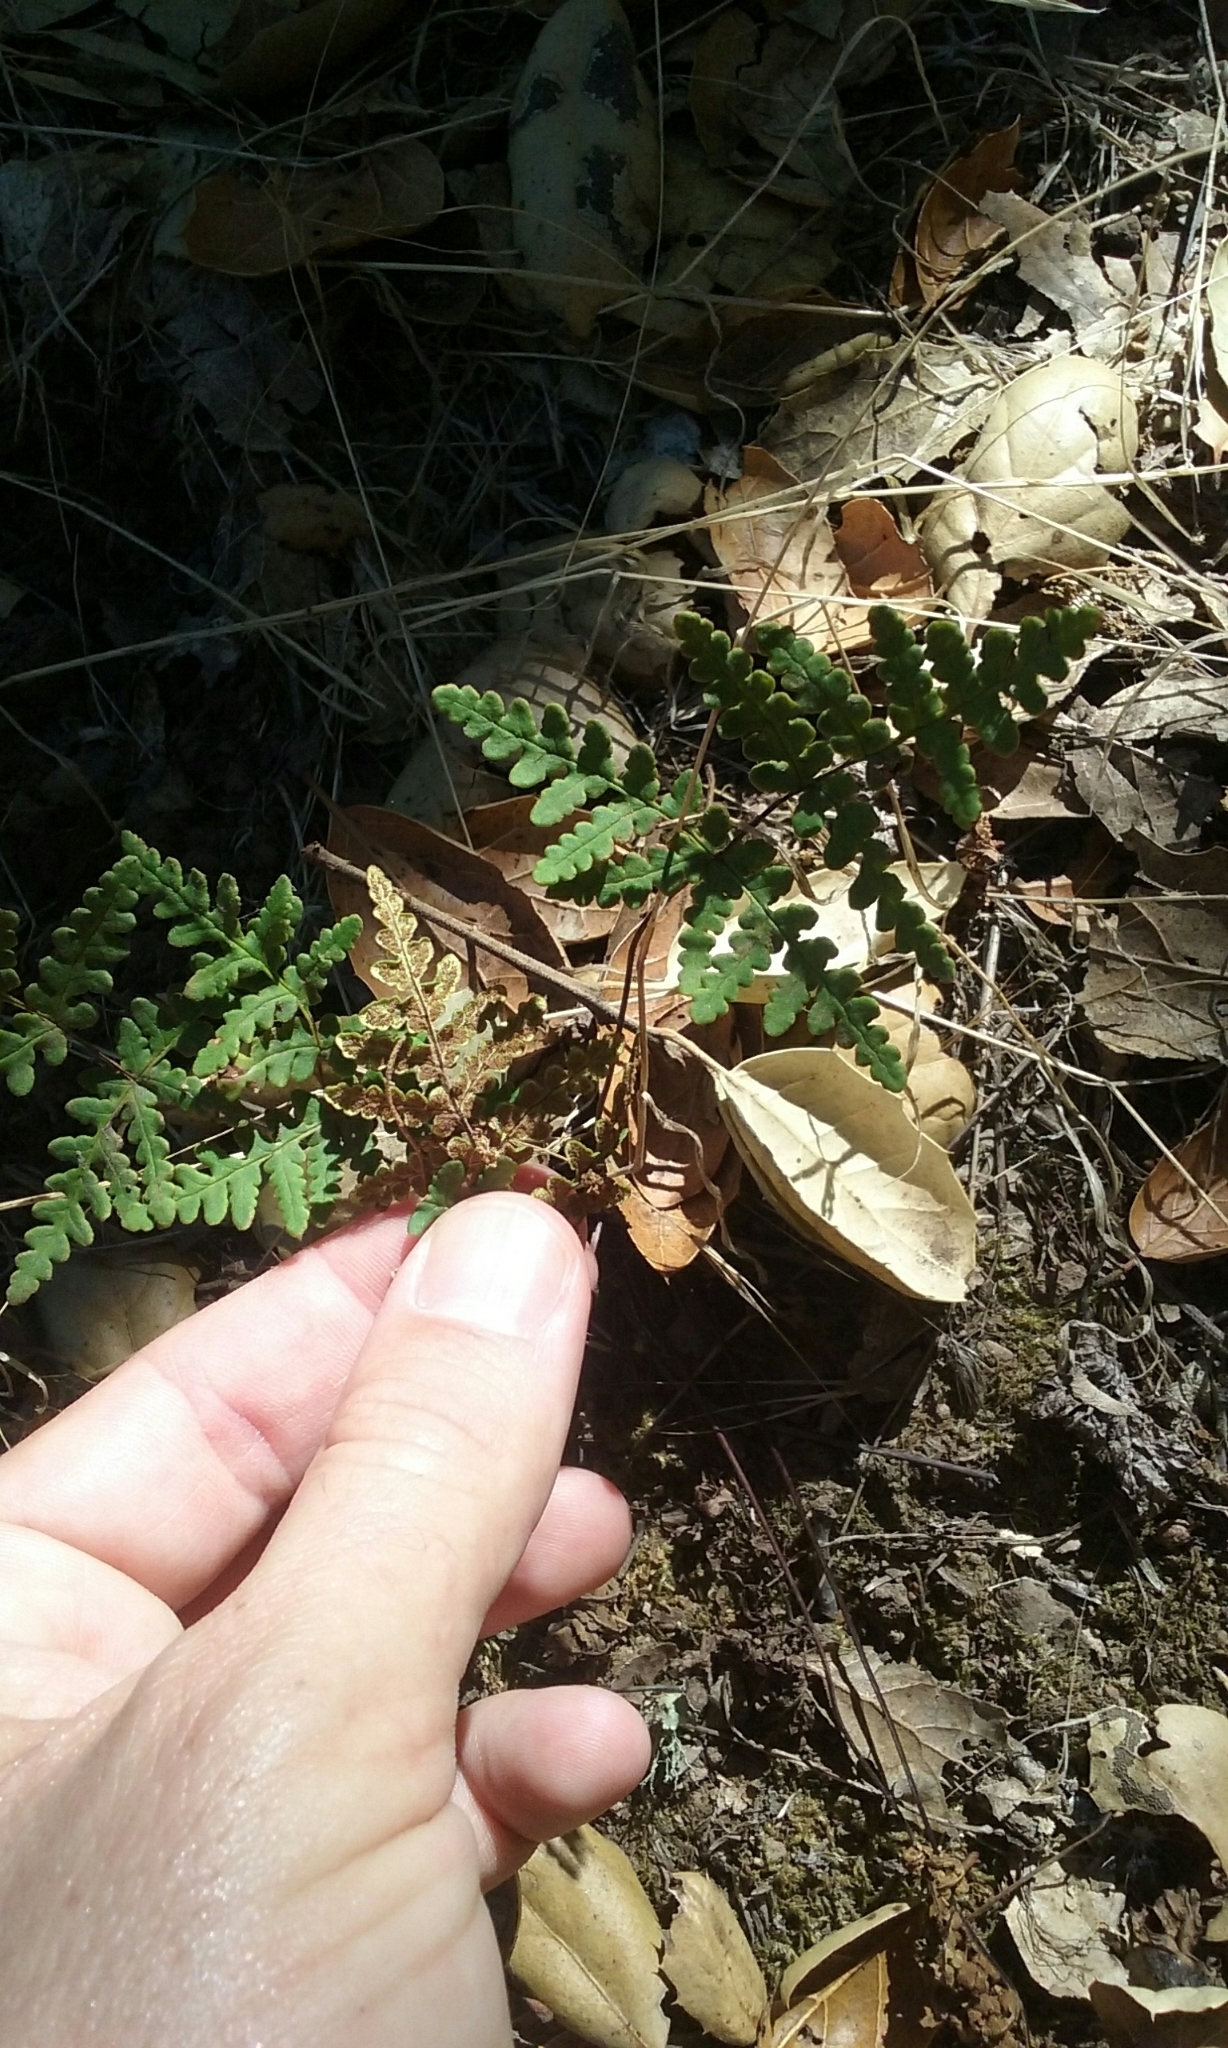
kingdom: Plantae
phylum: Tracheophyta
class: Polypodiopsida
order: Polypodiales
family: Pteridaceae
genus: Pentagramma
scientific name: Pentagramma triangularis
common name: Gold fern
